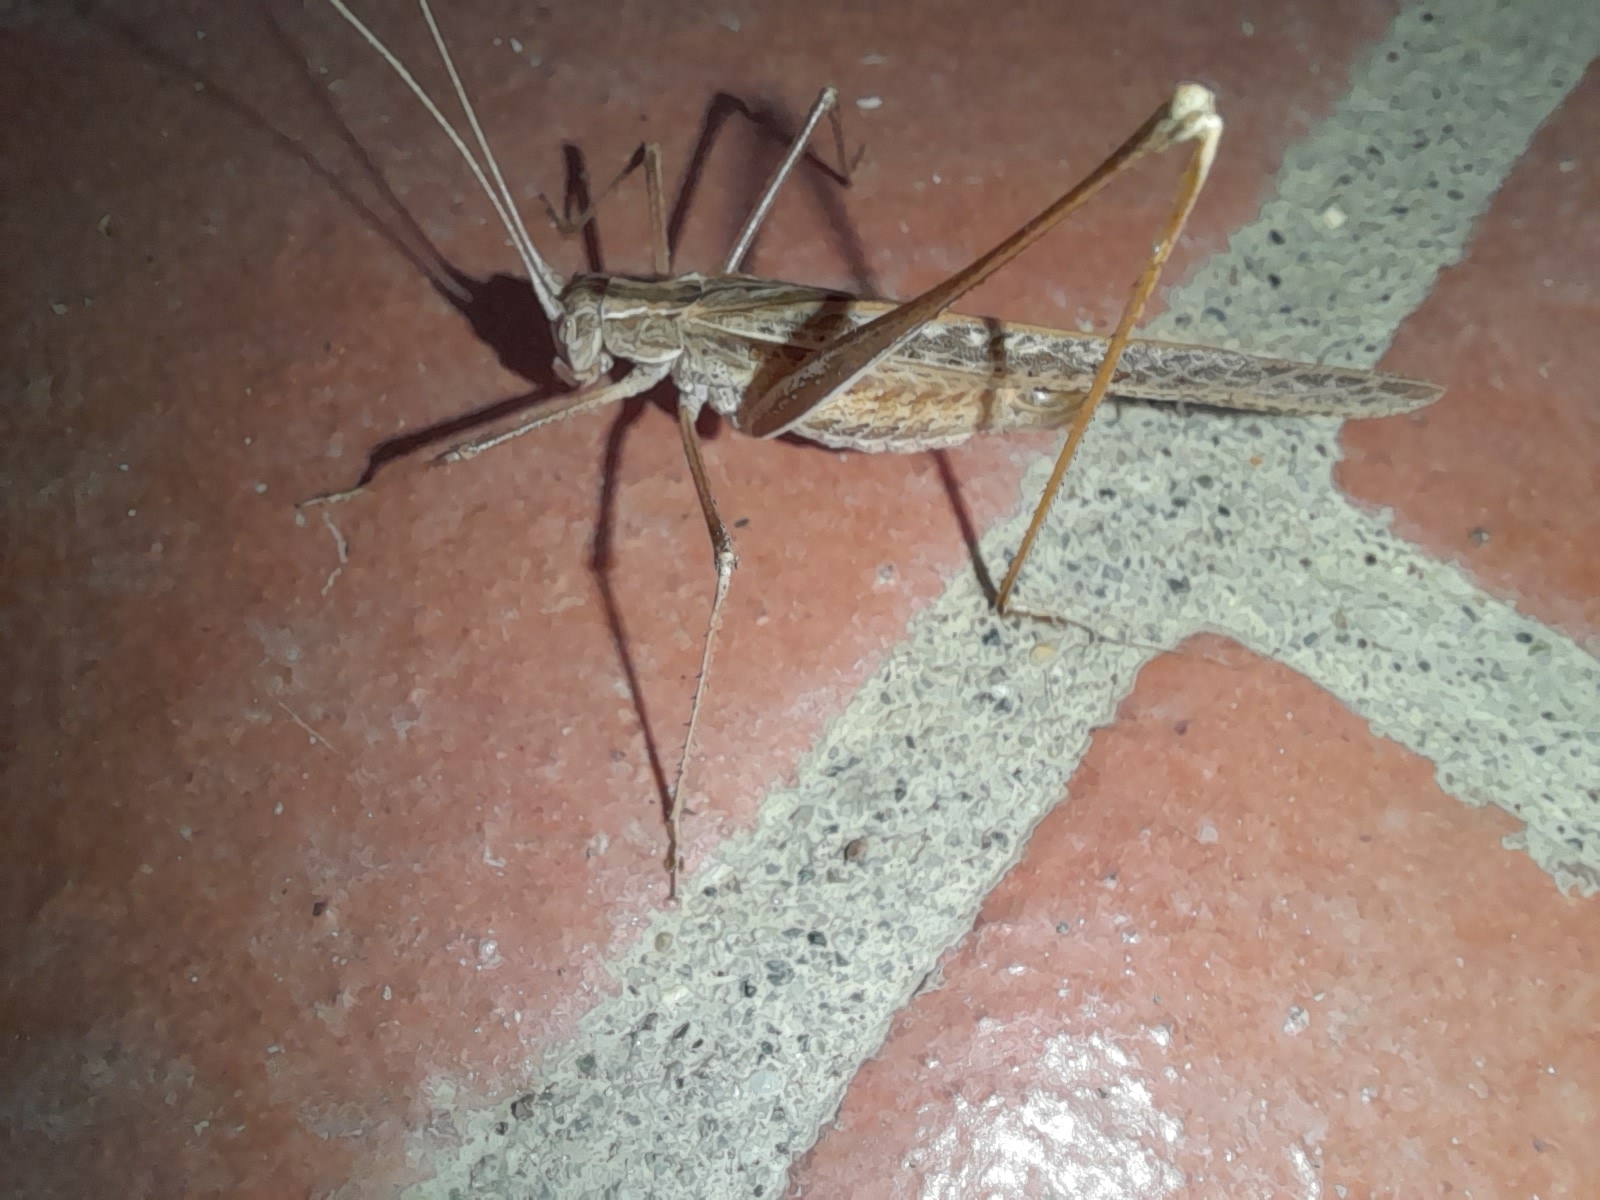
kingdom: Animalia
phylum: Arthropoda
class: Insecta
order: Orthoptera
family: Tettigoniidae
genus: Tylopsis
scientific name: Tylopsis lilifolia
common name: Lily bush-cricket
